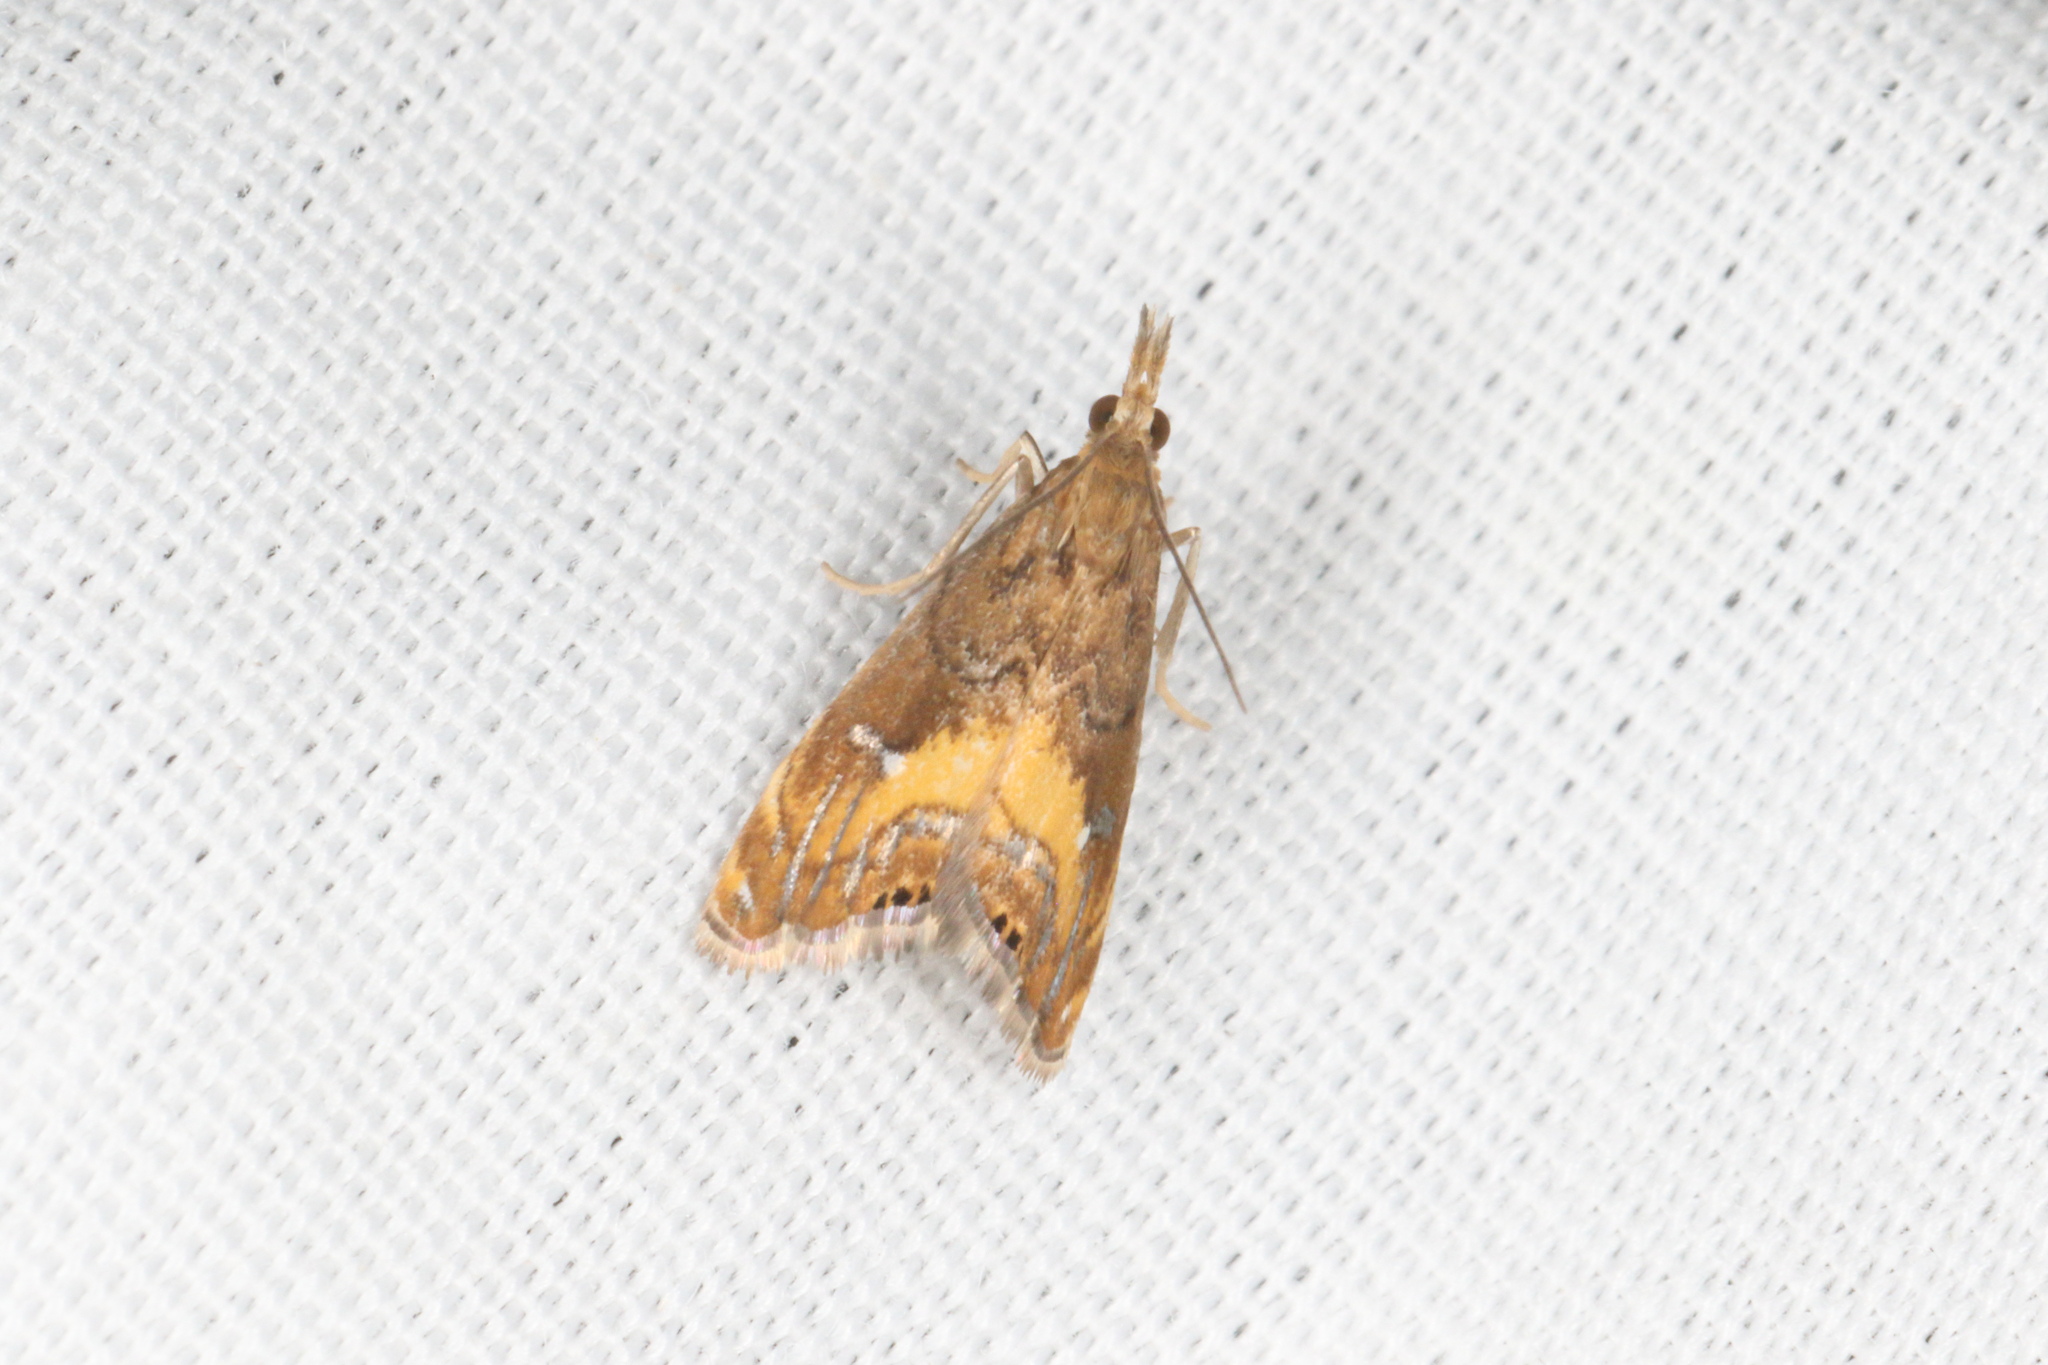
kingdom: Animalia
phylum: Arthropoda
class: Insecta
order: Lepidoptera
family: Crambidae
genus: Glaucocharis
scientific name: Glaucocharis chrysochyta
